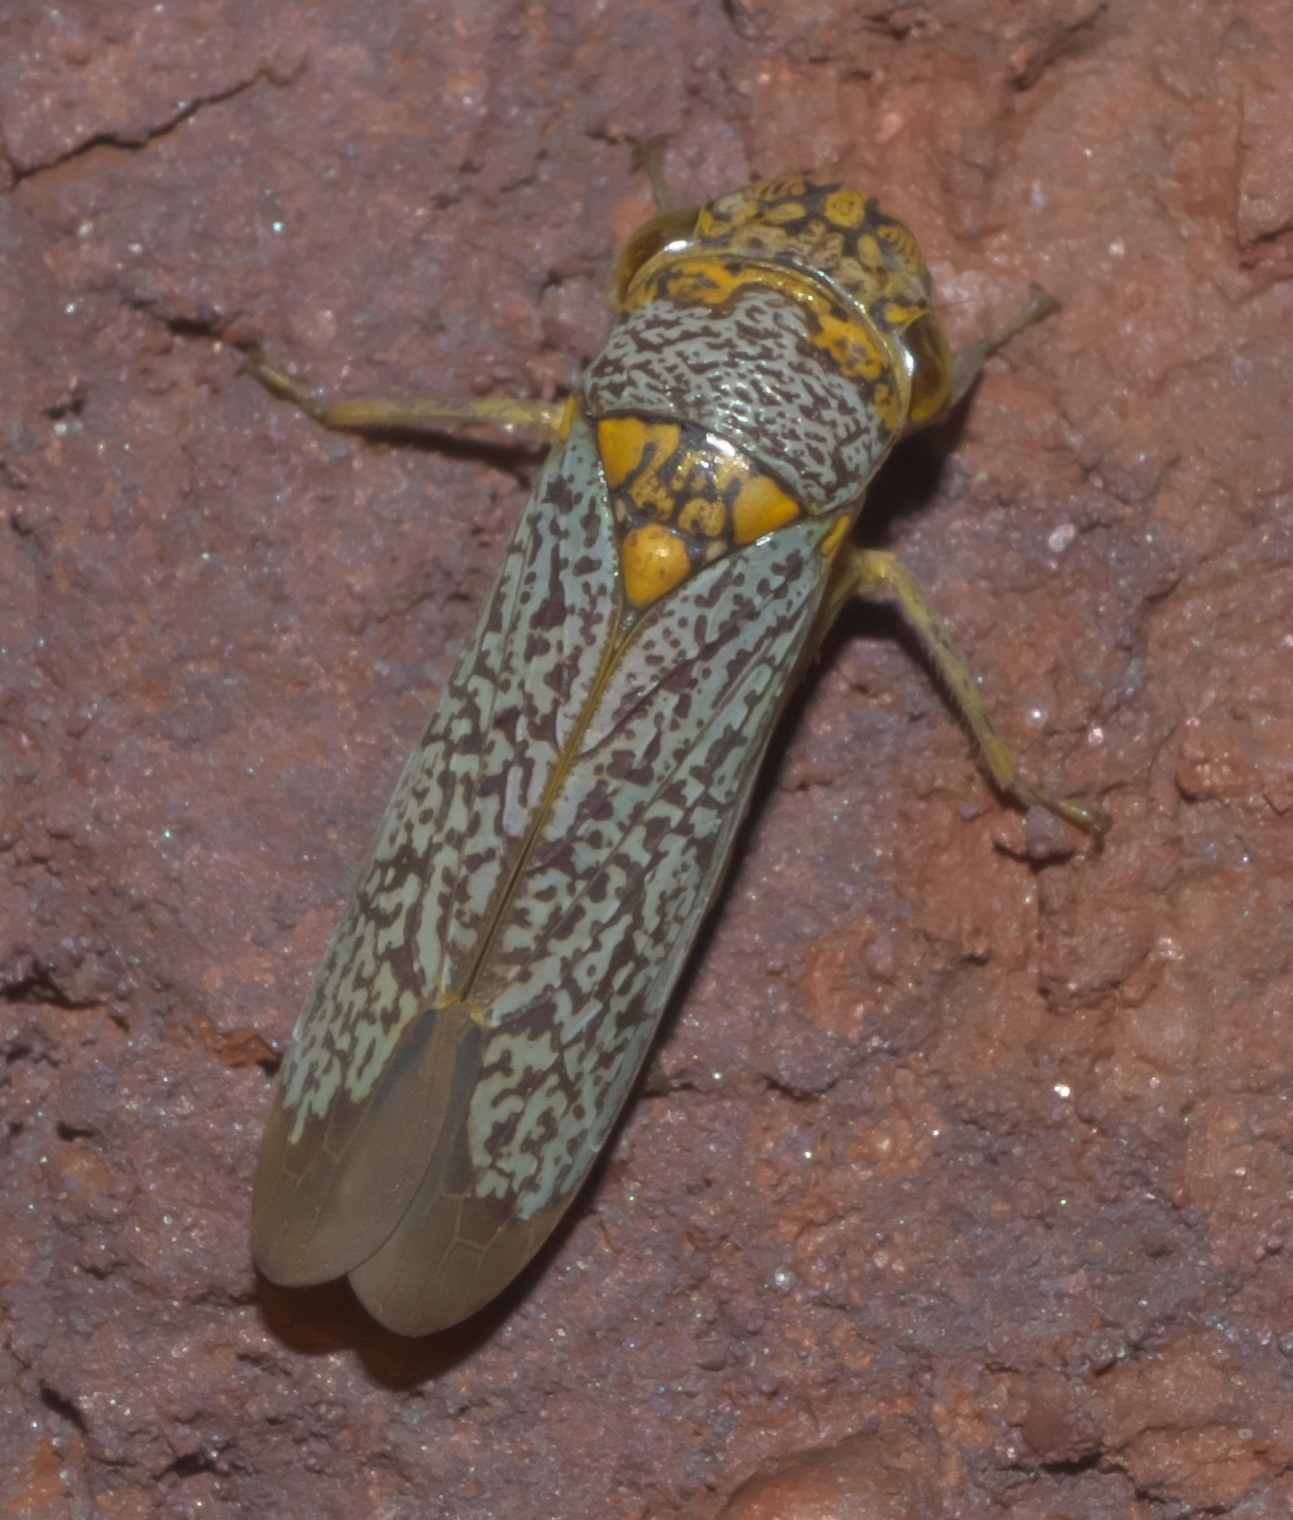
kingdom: Animalia
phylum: Arthropoda
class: Insecta
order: Hemiptera
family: Cicadellidae
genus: Oncometopia
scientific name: Oncometopia orbona
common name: Broad-headed sharpshooter
